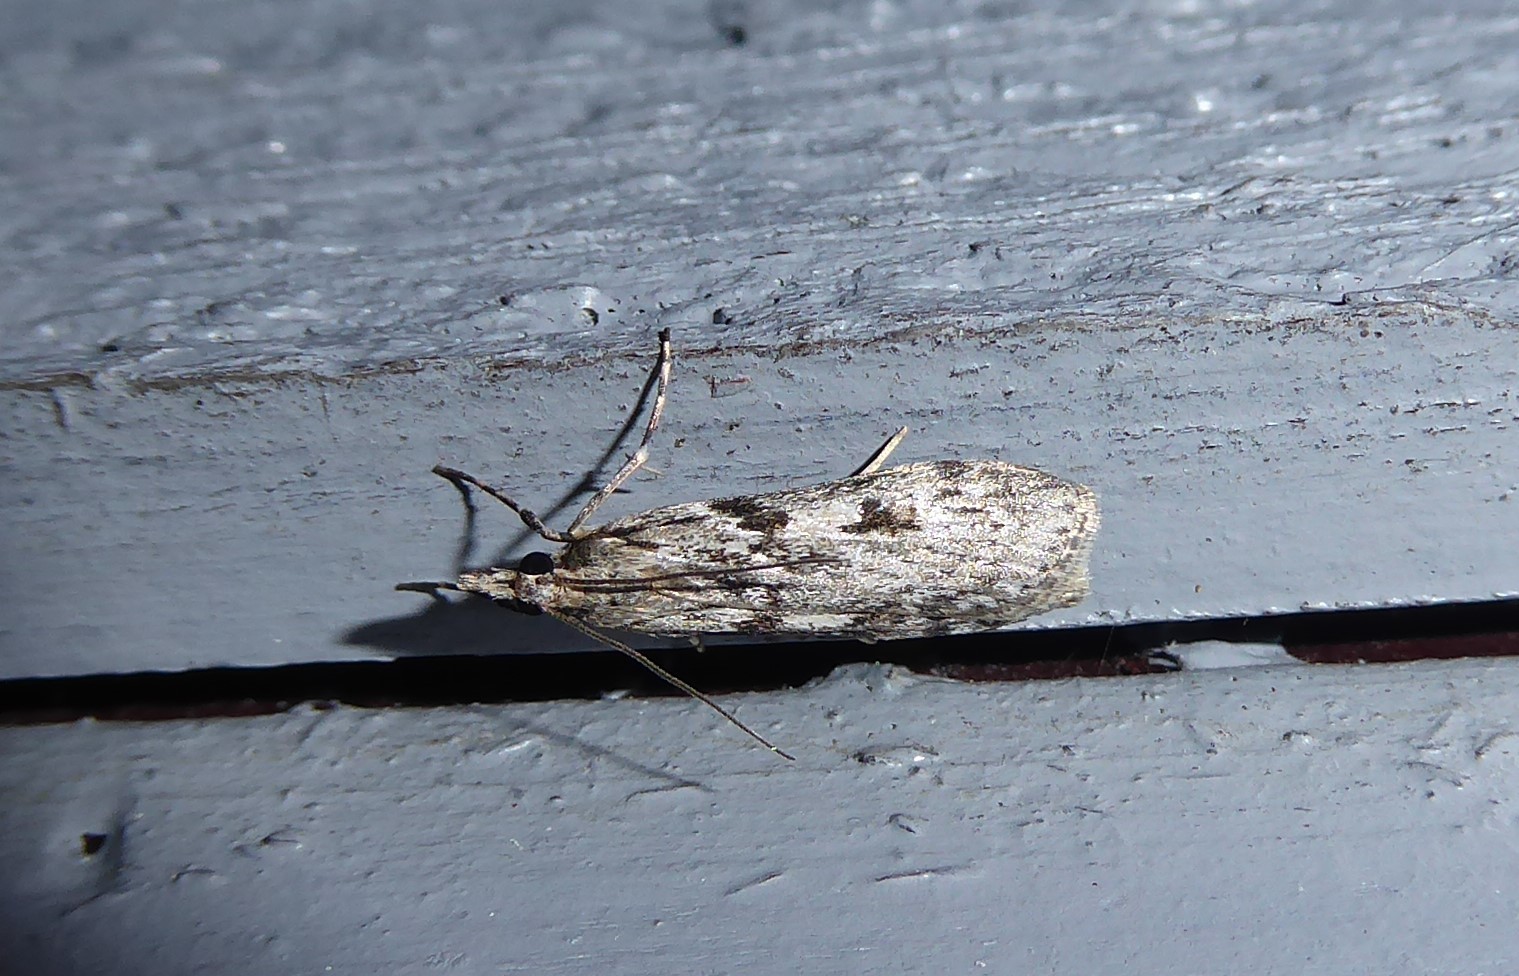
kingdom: Animalia
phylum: Arthropoda
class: Insecta
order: Lepidoptera
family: Crambidae
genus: Scoparia
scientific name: Scoparia halopis
